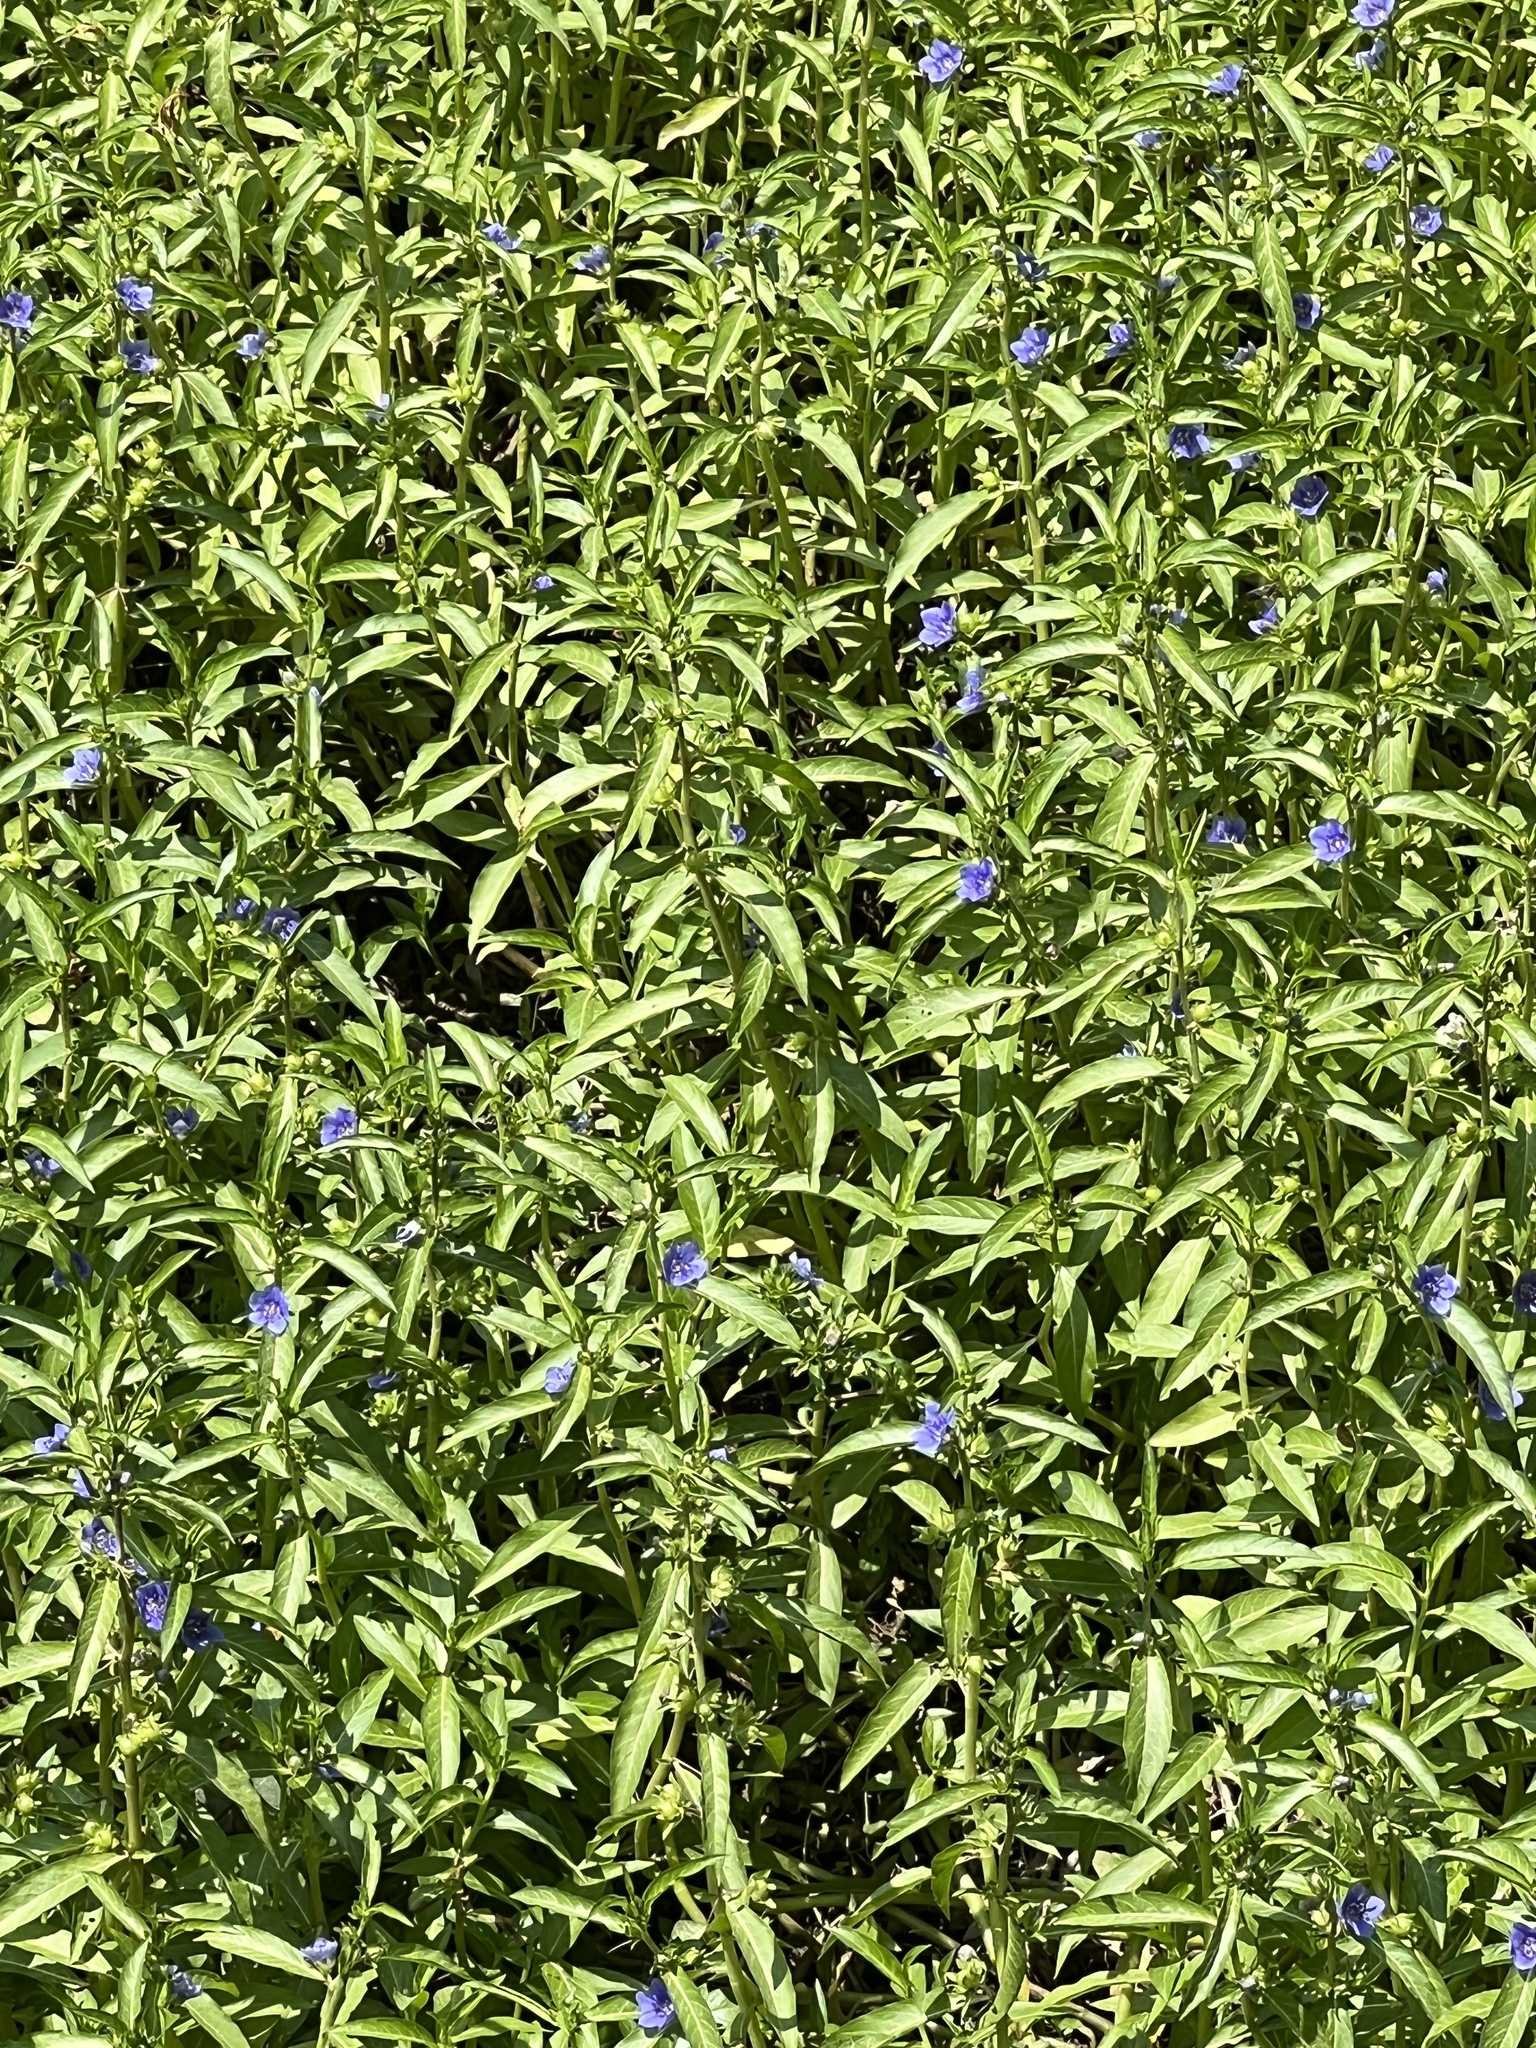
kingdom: Plantae
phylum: Tracheophyta
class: Magnoliopsida
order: Solanales
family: Hydroleaceae
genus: Hydrolea
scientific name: Hydrolea uniflora
